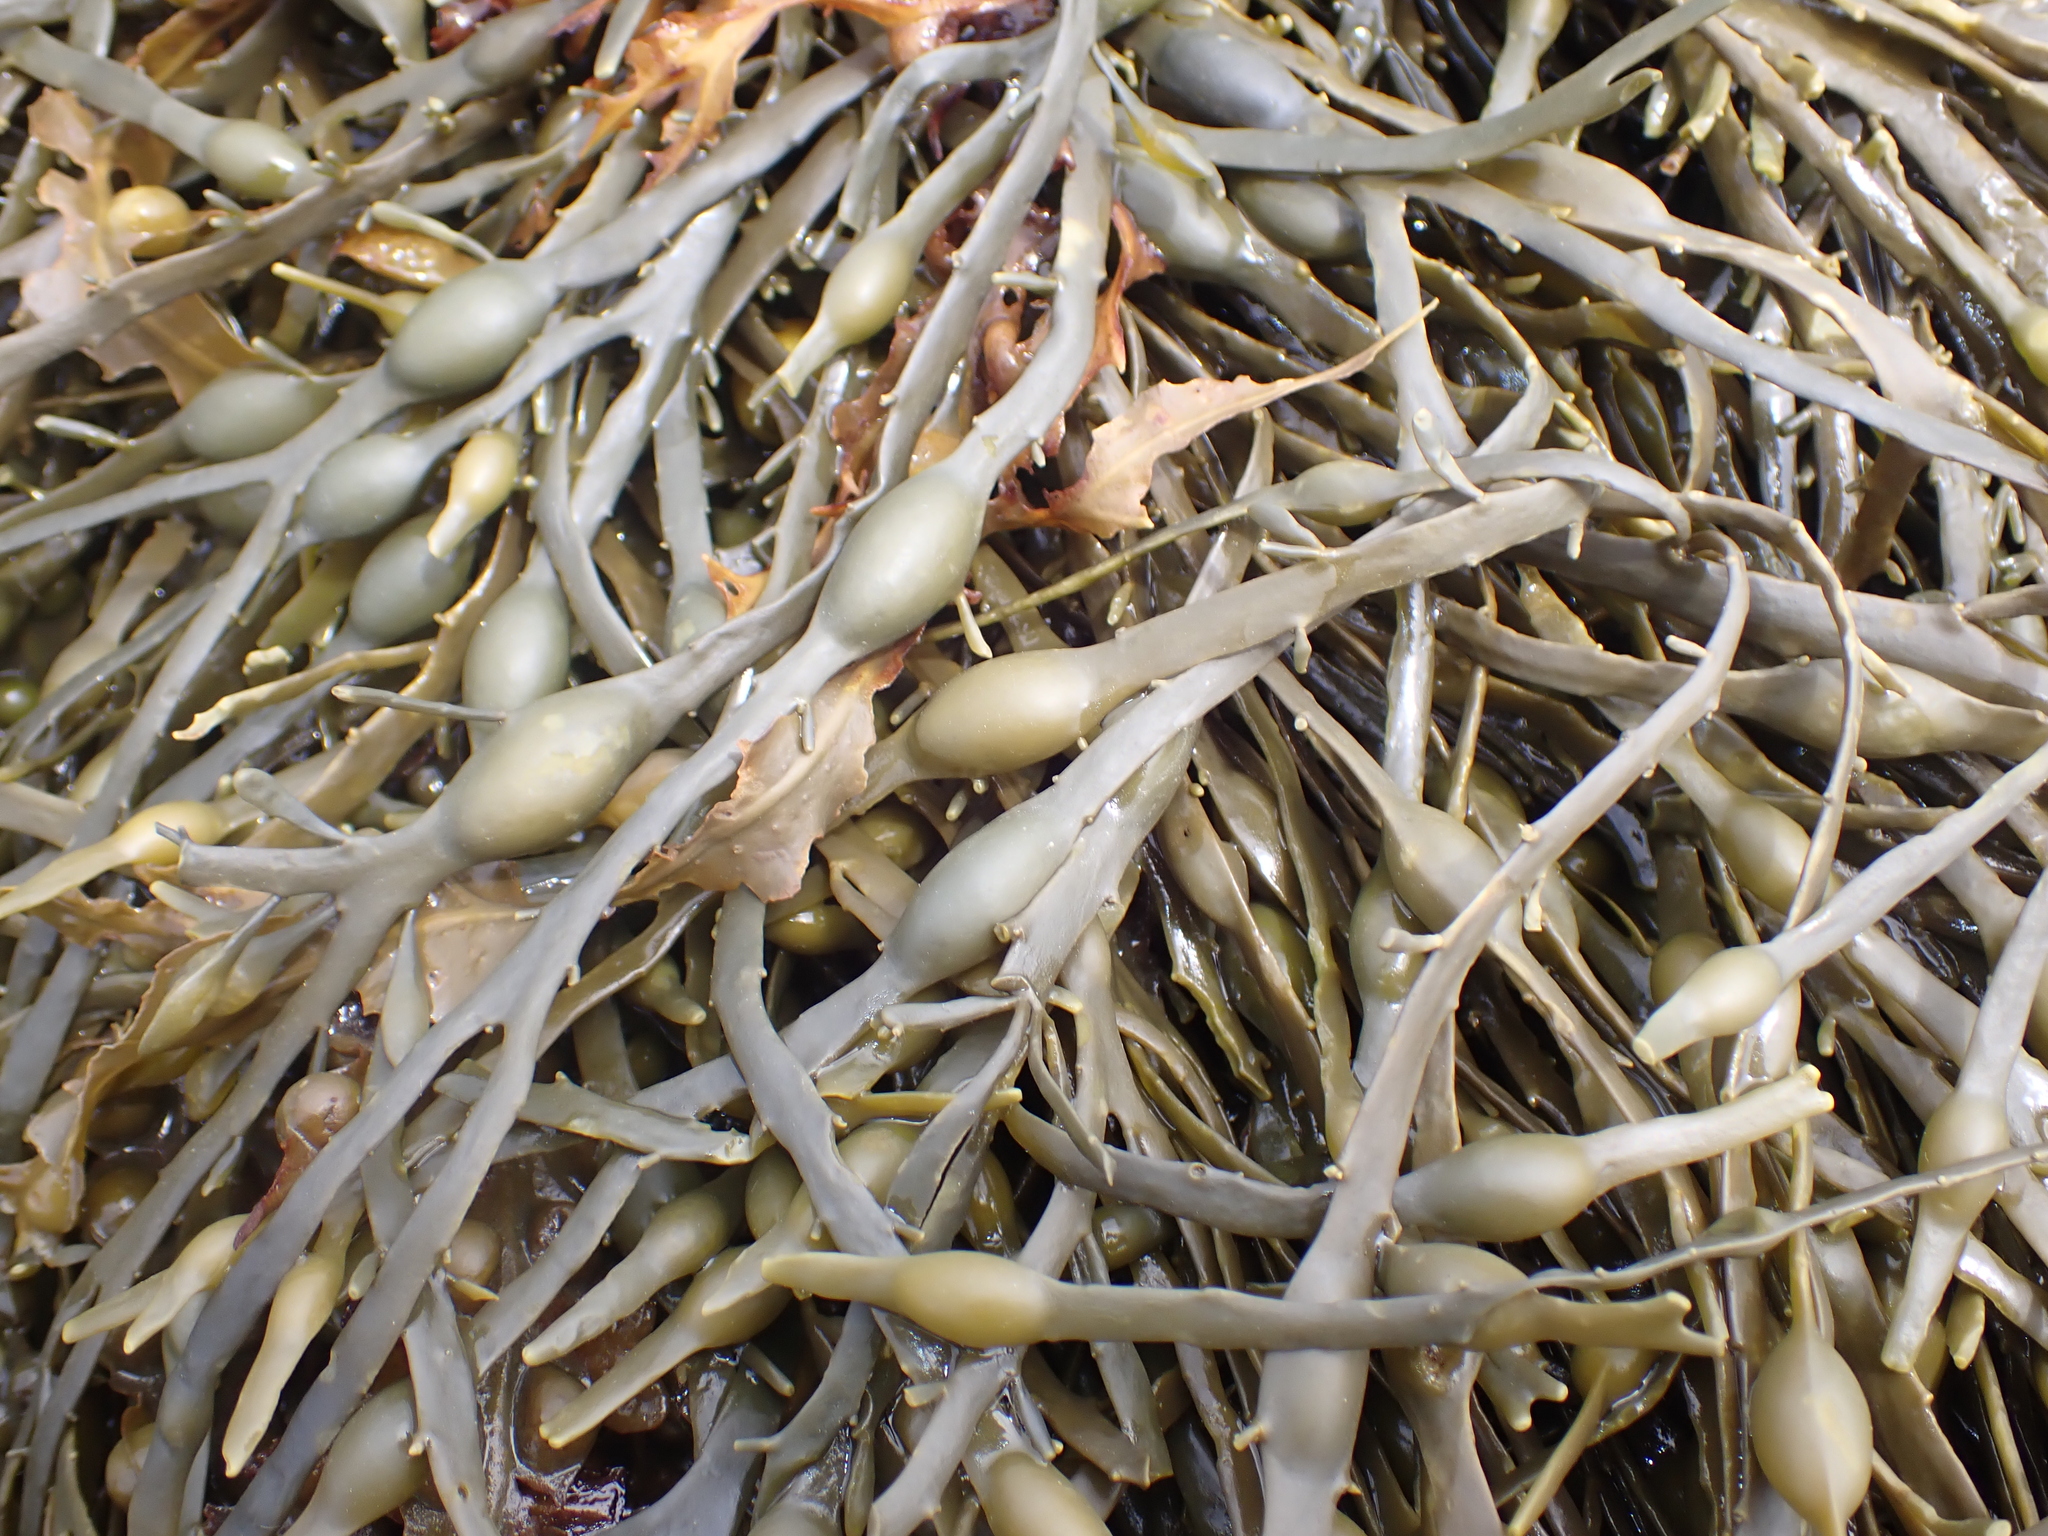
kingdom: Chromista
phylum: Ochrophyta
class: Phaeophyceae
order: Fucales
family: Fucaceae
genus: Ascophyllum
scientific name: Ascophyllum nodosum
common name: Knotted wrack
